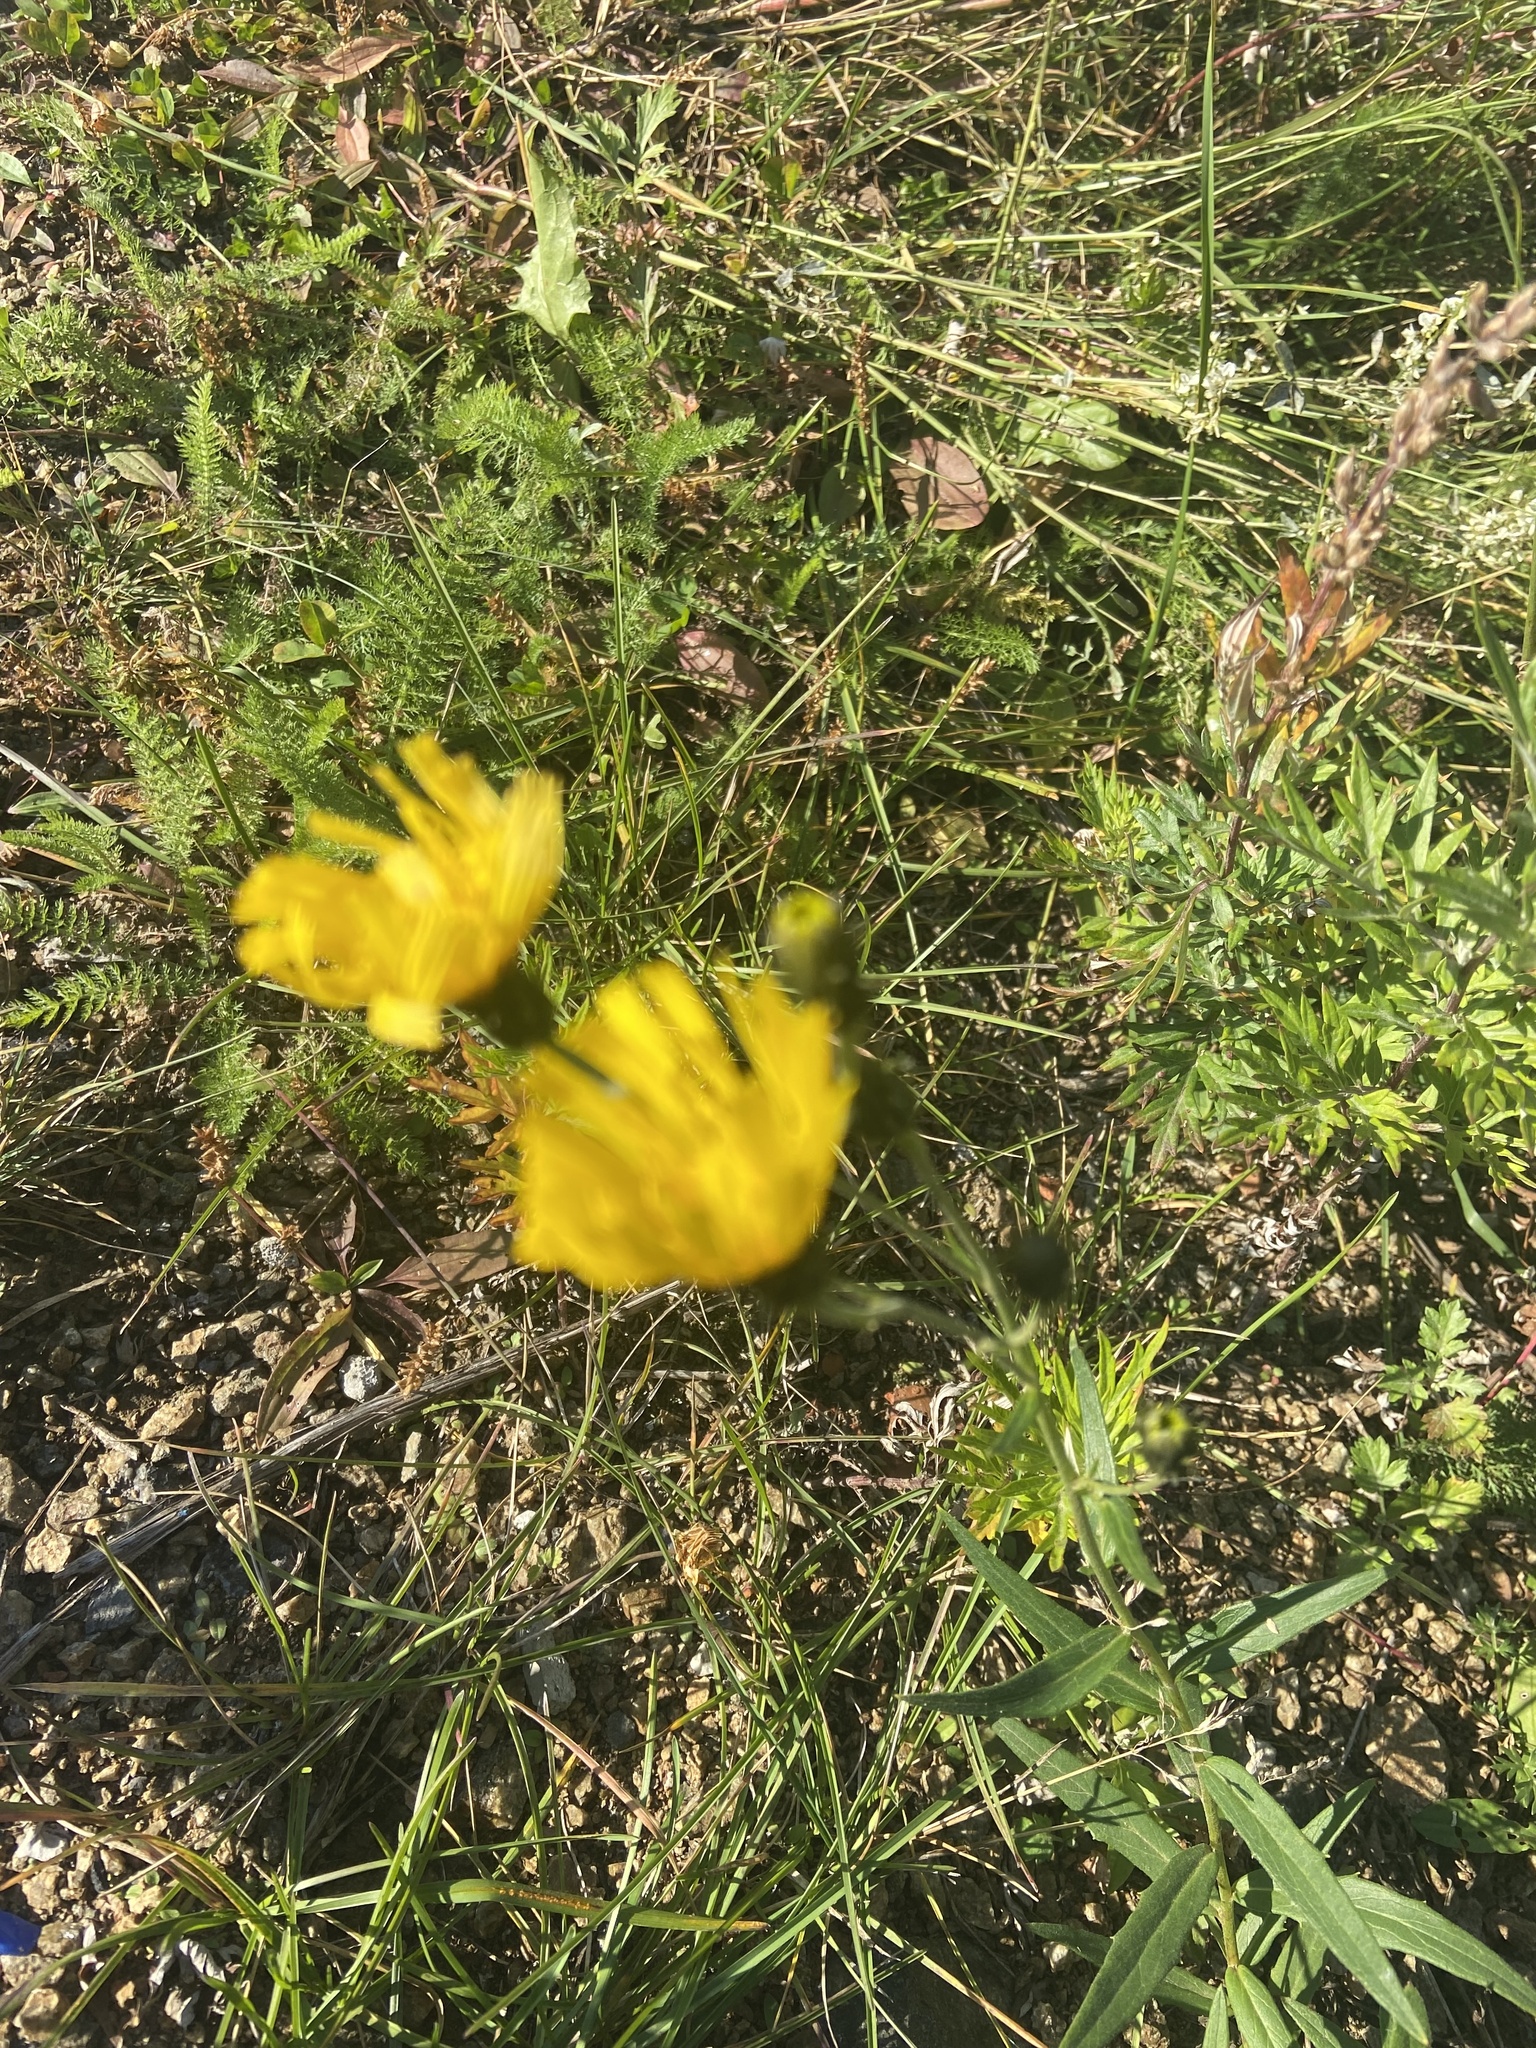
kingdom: Plantae
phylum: Tracheophyta
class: Magnoliopsida
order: Asterales
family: Asteraceae
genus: Hieracium
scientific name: Hieracium umbellatum
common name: Northern hawkweed
